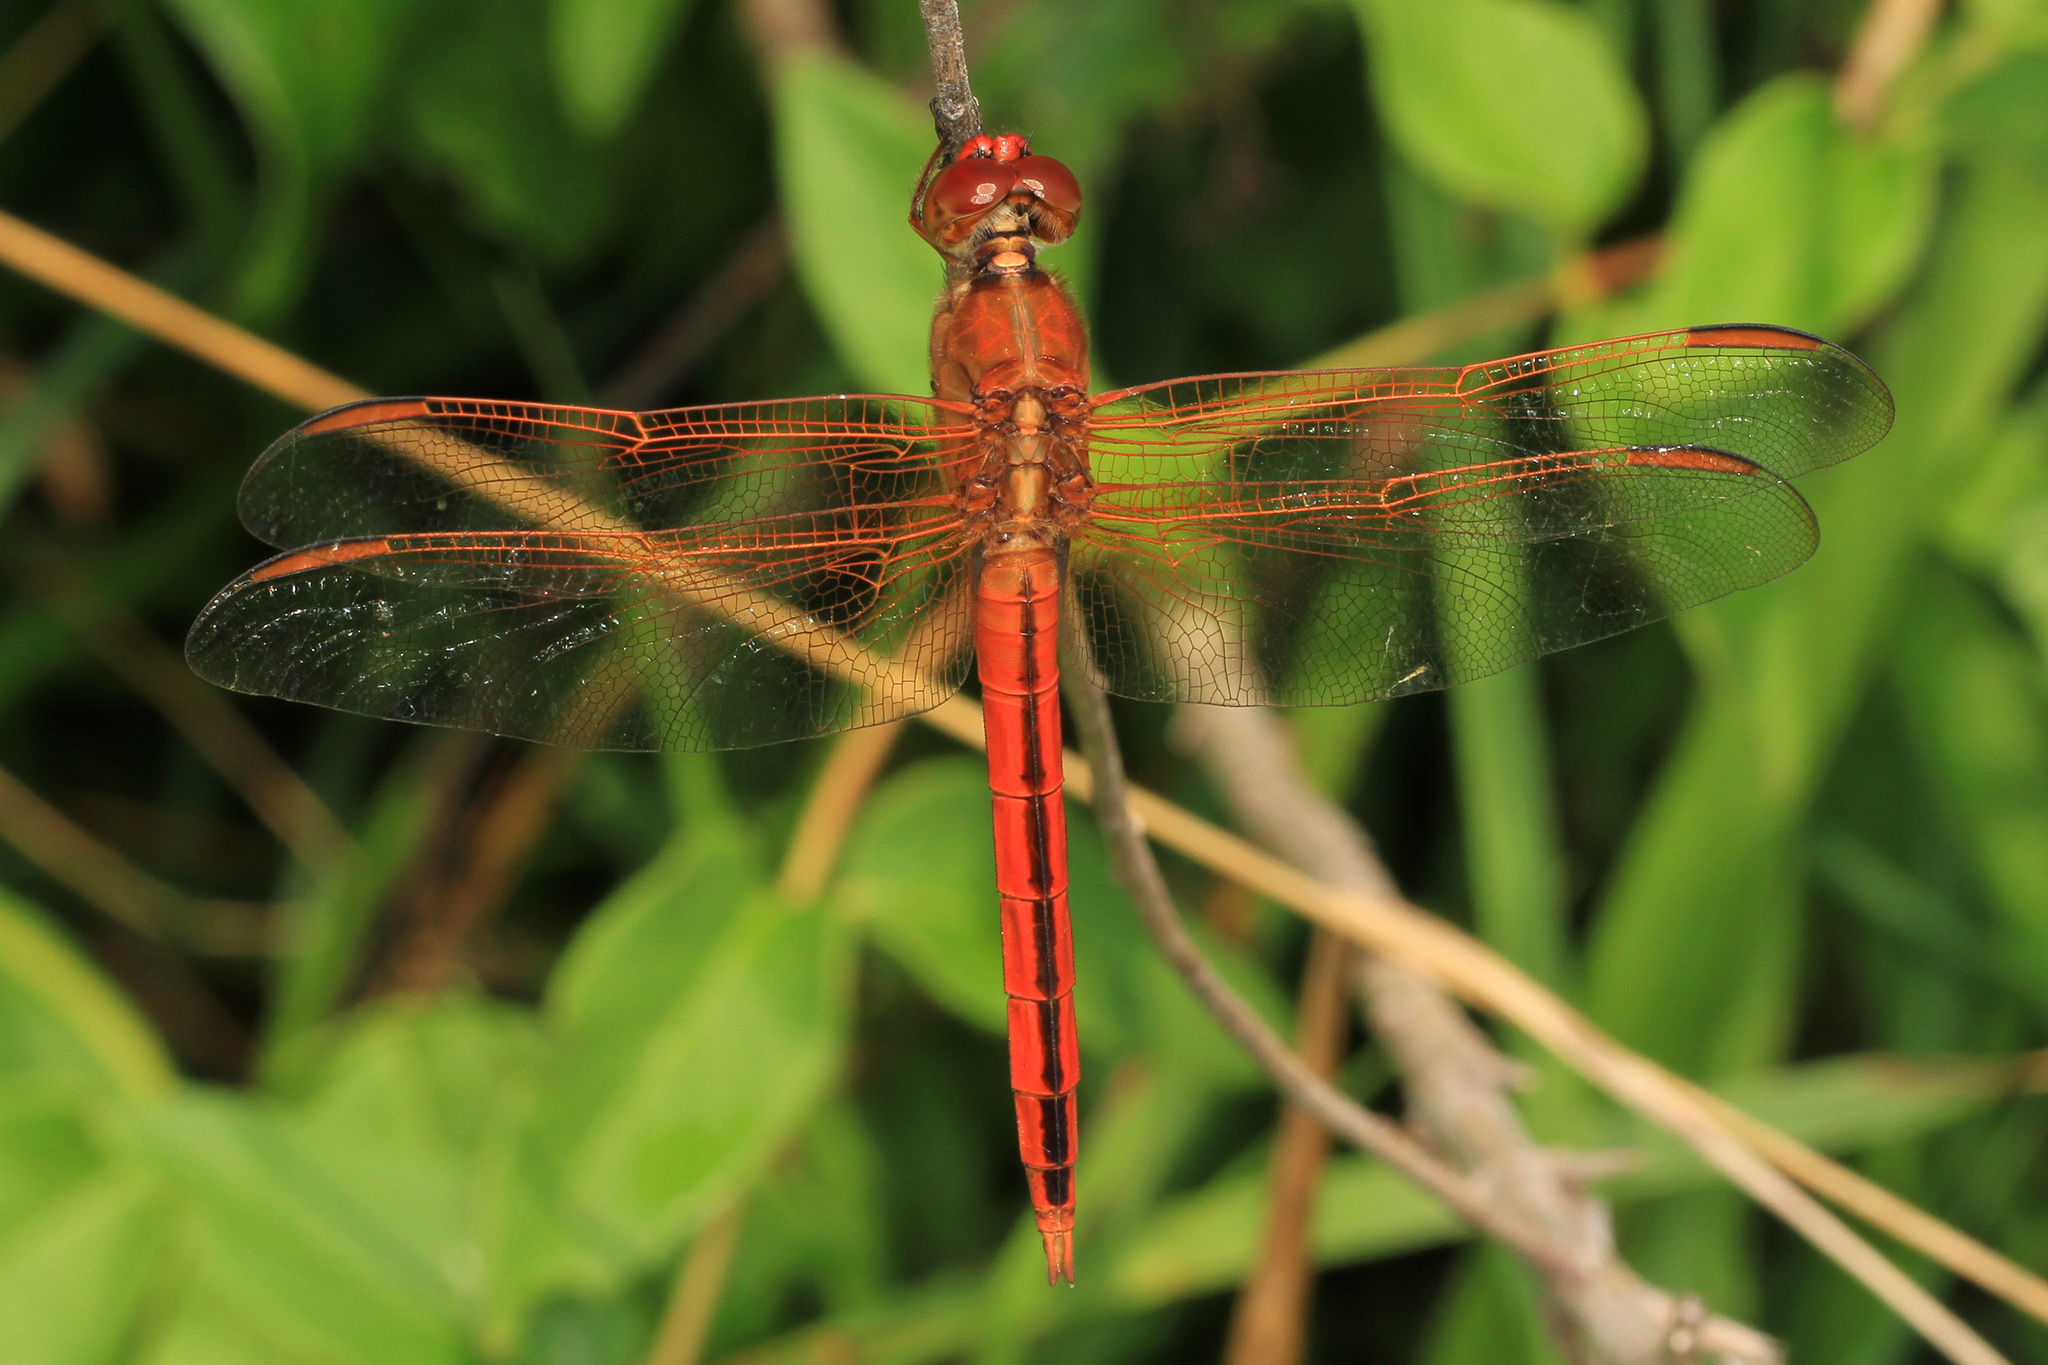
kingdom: Animalia
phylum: Arthropoda
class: Insecta
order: Odonata
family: Libellulidae
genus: Libellula
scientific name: Libellula needhami
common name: Needham's skimmer
